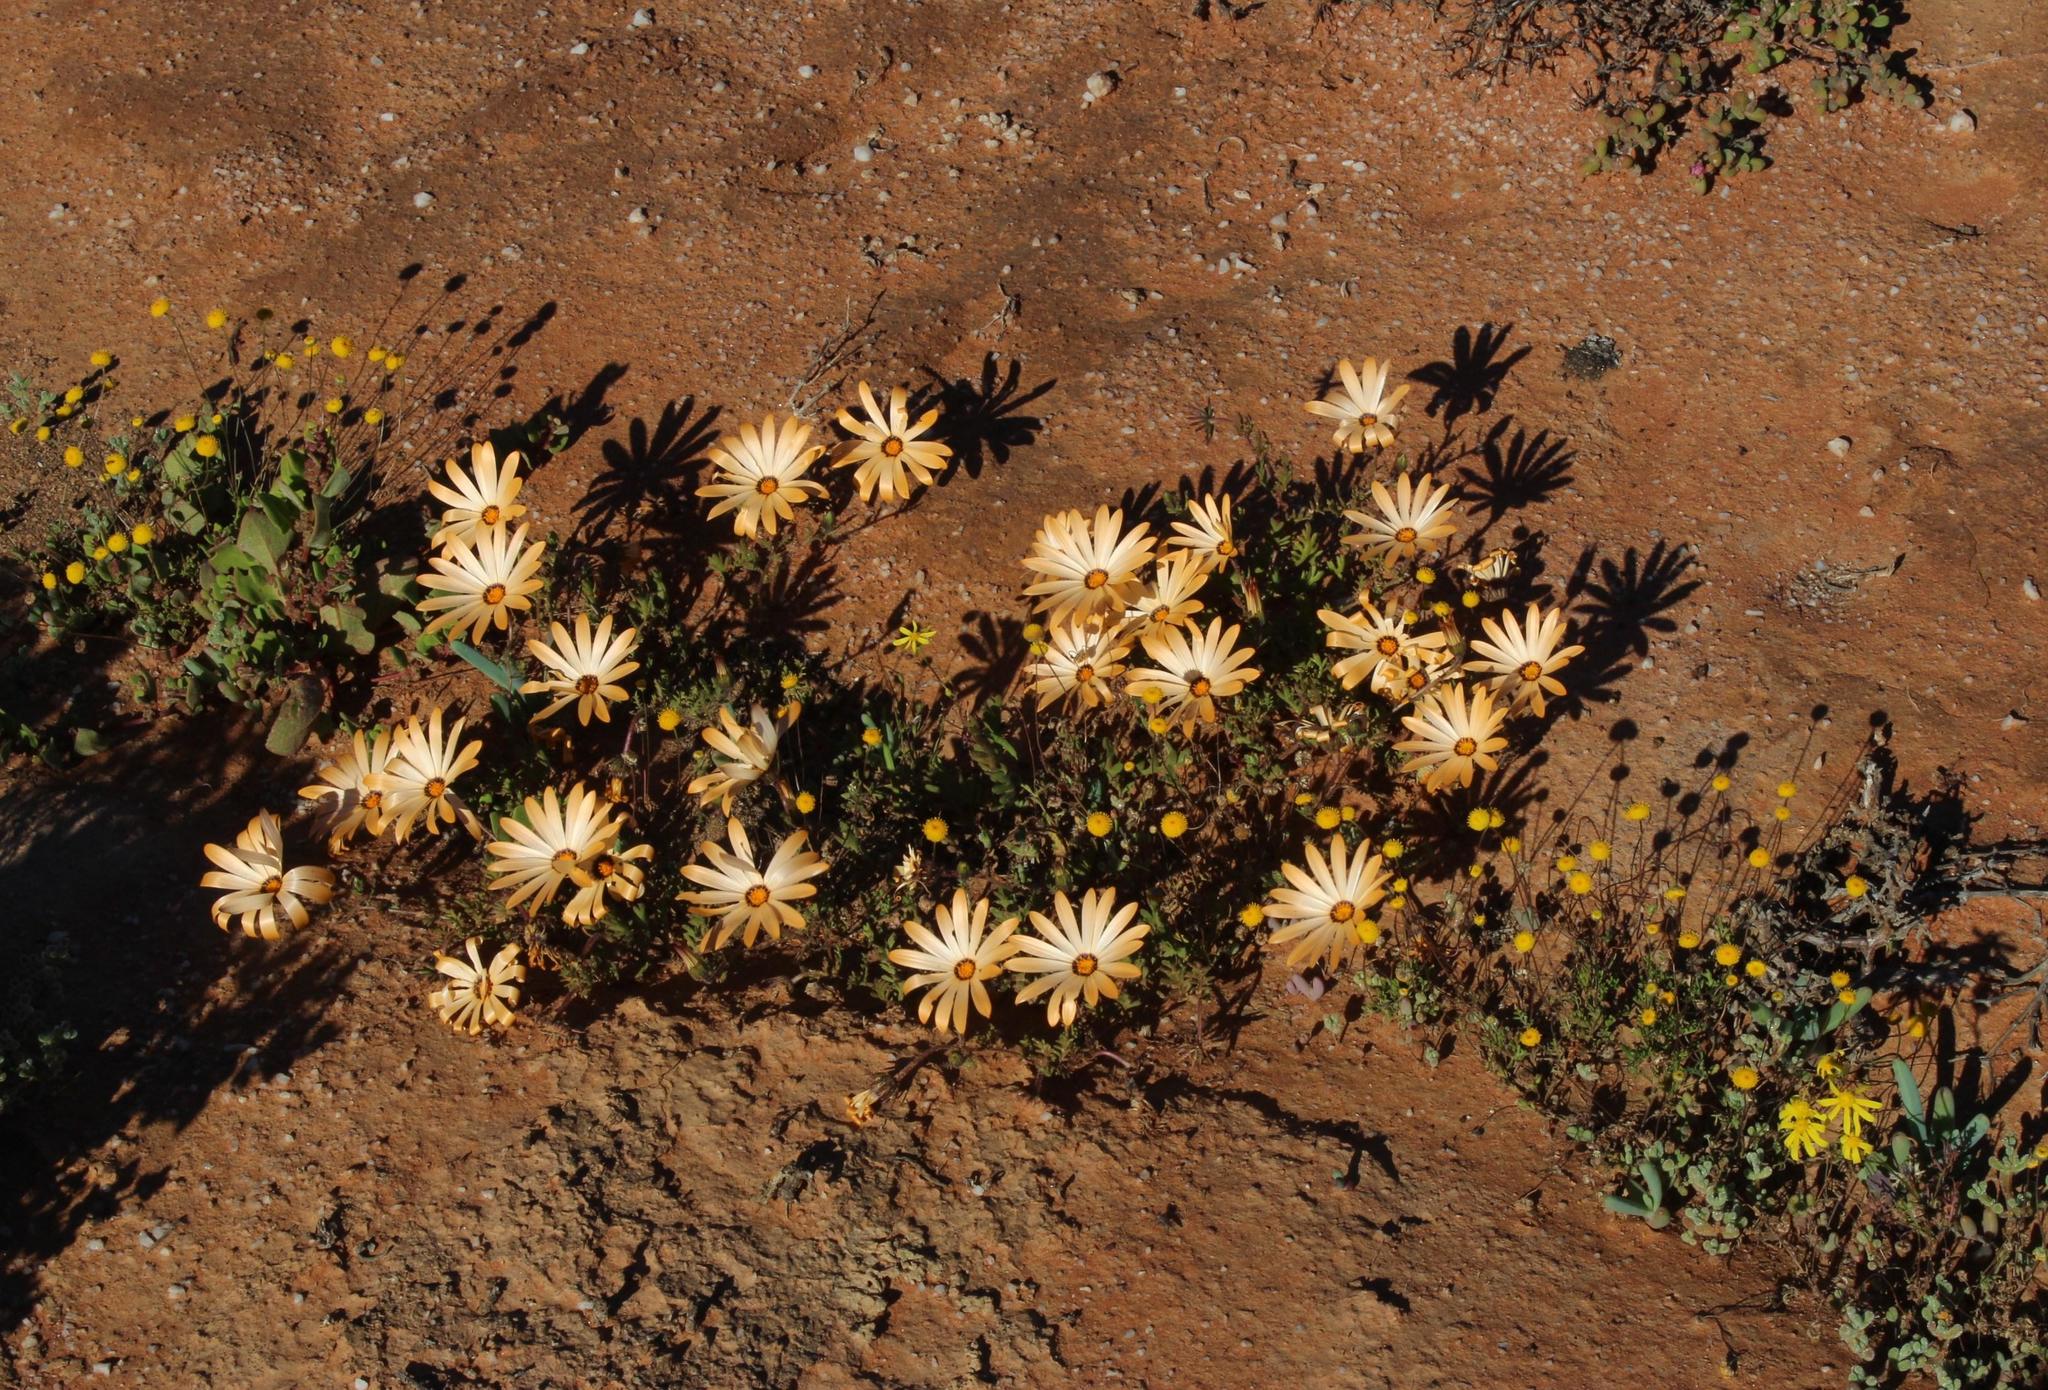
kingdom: Plantae
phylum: Tracheophyta
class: Magnoliopsida
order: Asterales
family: Asteraceae
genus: Dimorphotheca
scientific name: Dimorphotheca pinnata
